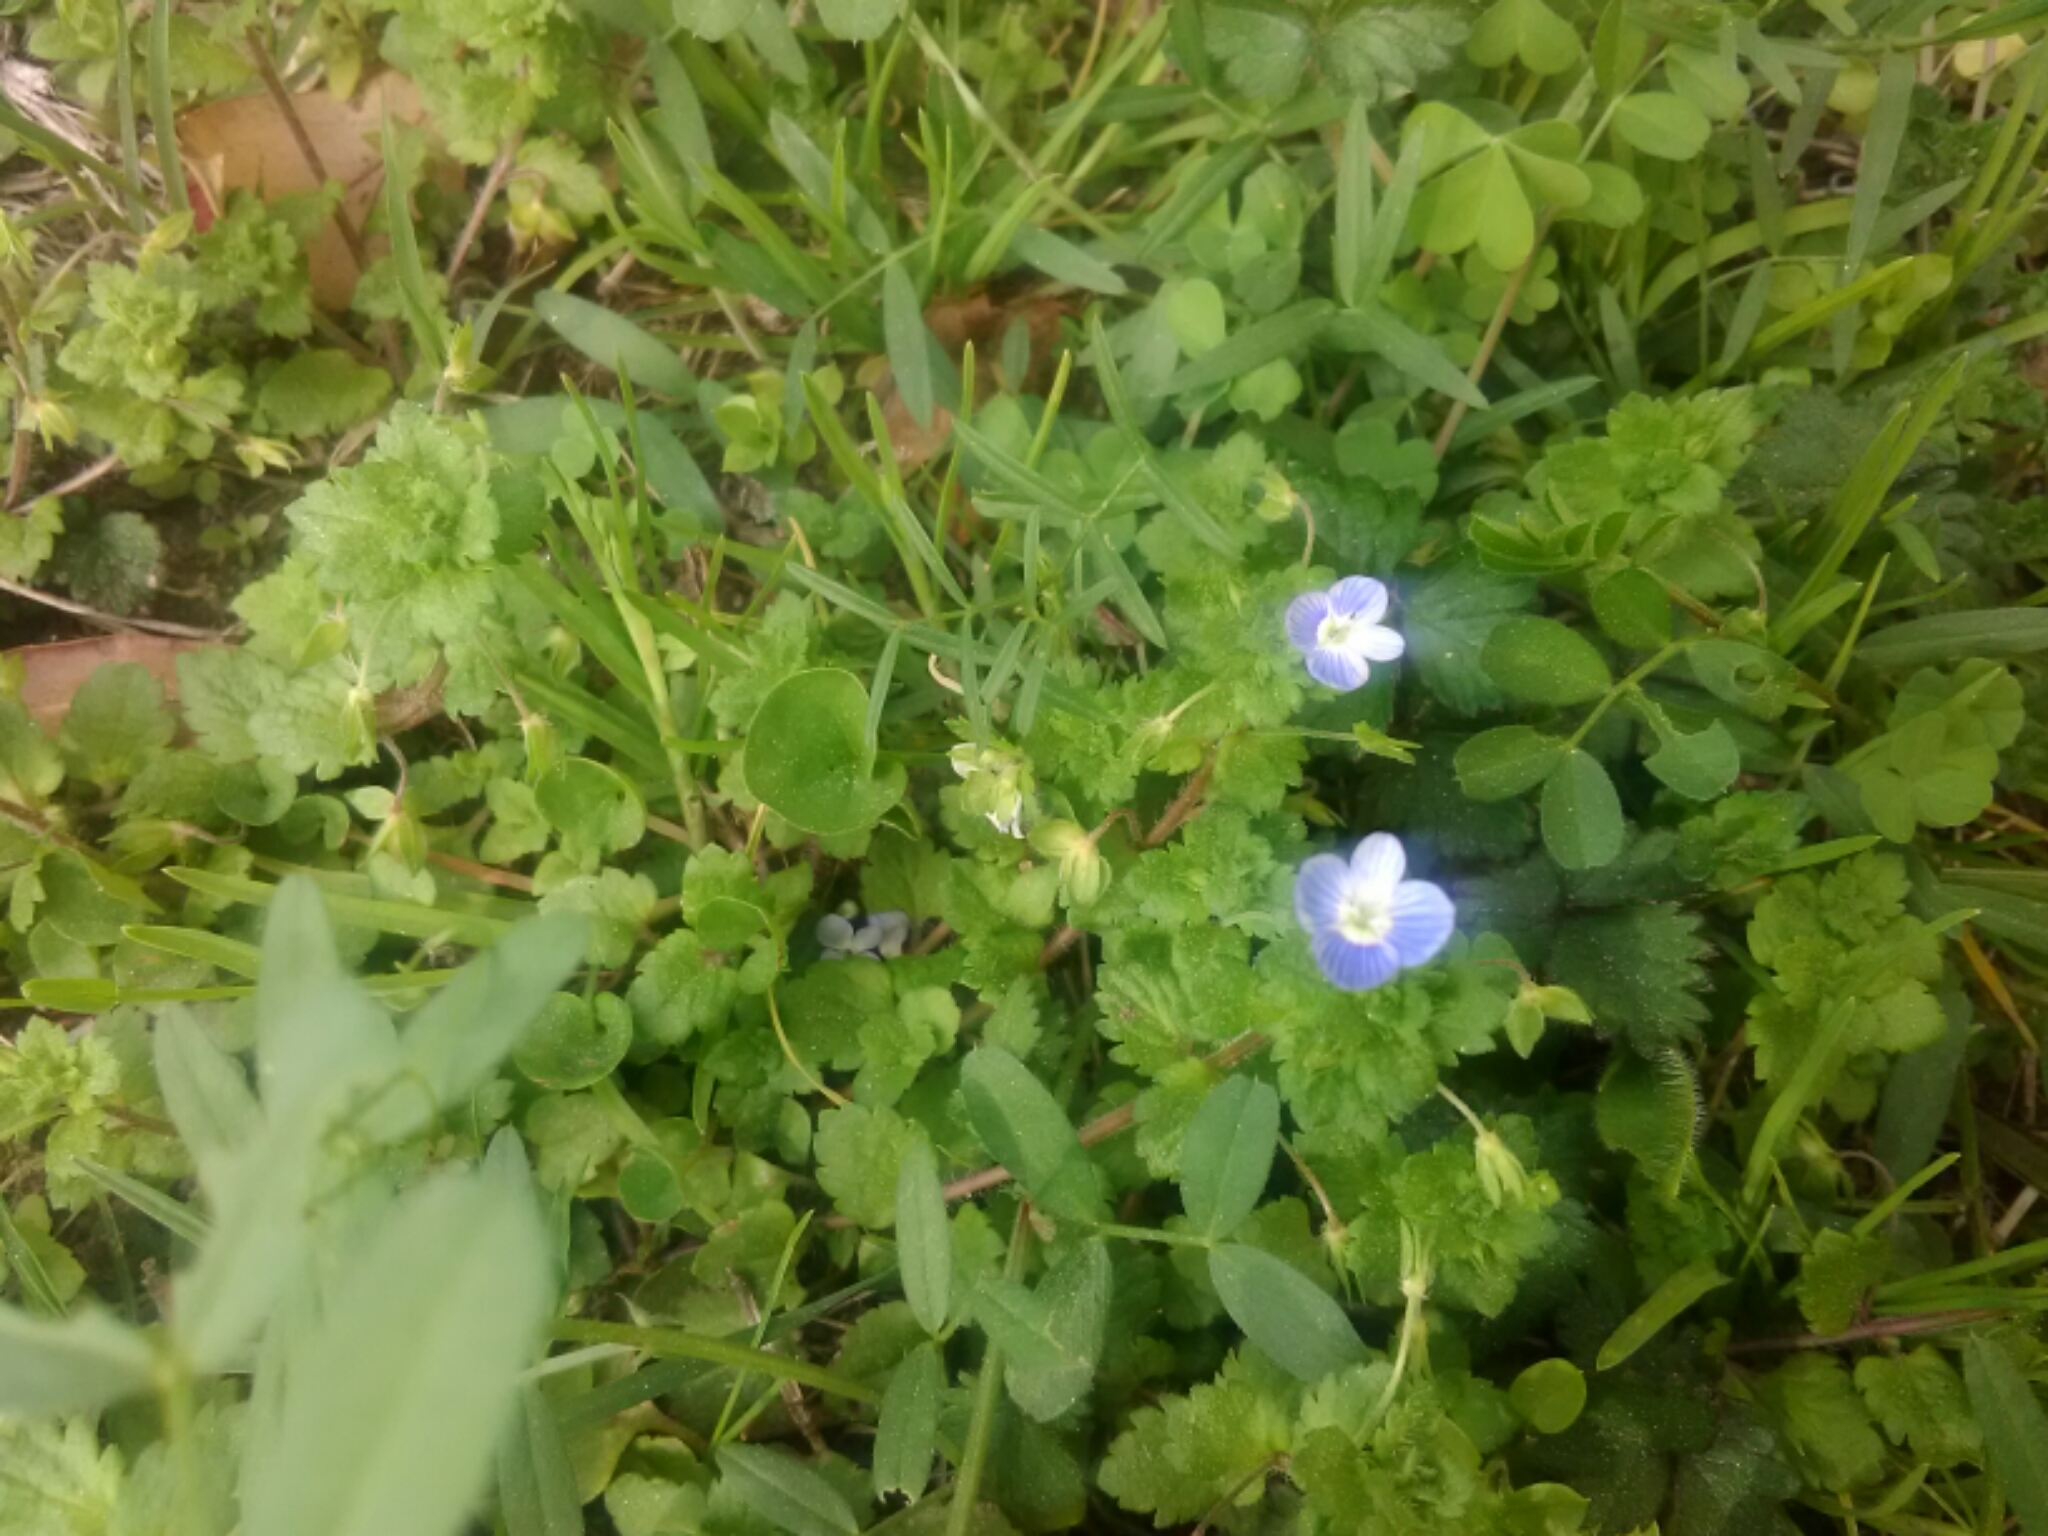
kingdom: Plantae
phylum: Tracheophyta
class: Magnoliopsida
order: Lamiales
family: Plantaginaceae
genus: Veronica
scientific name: Veronica persica
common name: Common field-speedwell
